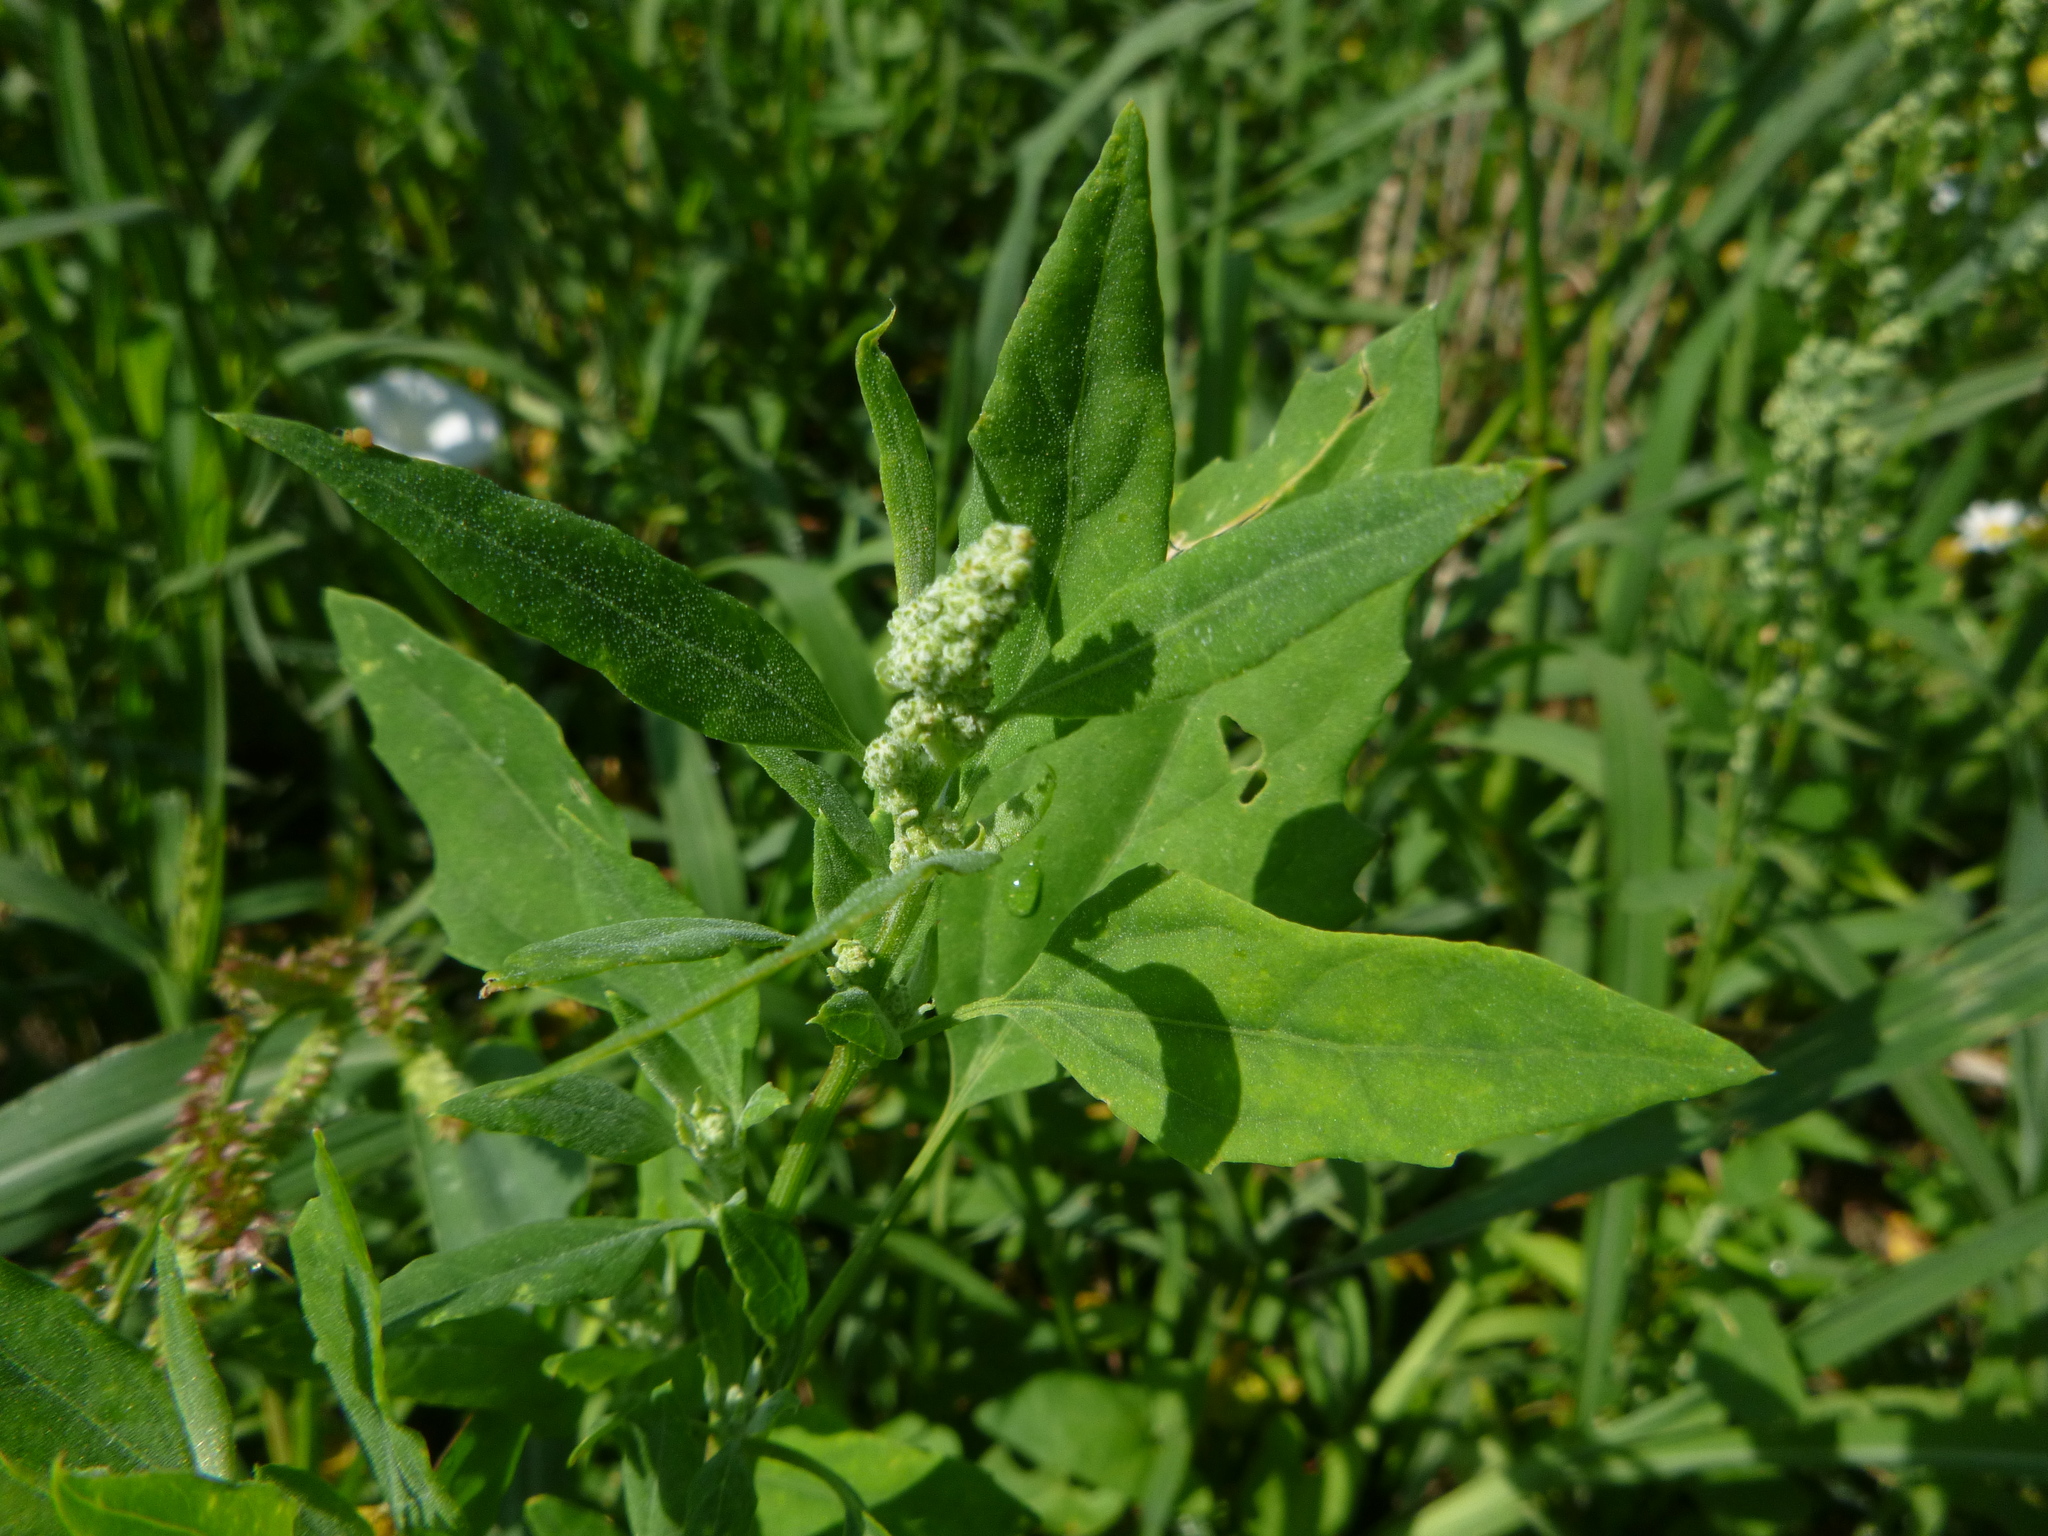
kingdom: Plantae
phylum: Tracheophyta
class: Magnoliopsida
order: Caryophyllales
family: Amaranthaceae
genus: Chenopodium
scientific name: Chenopodium album
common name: Fat-hen
